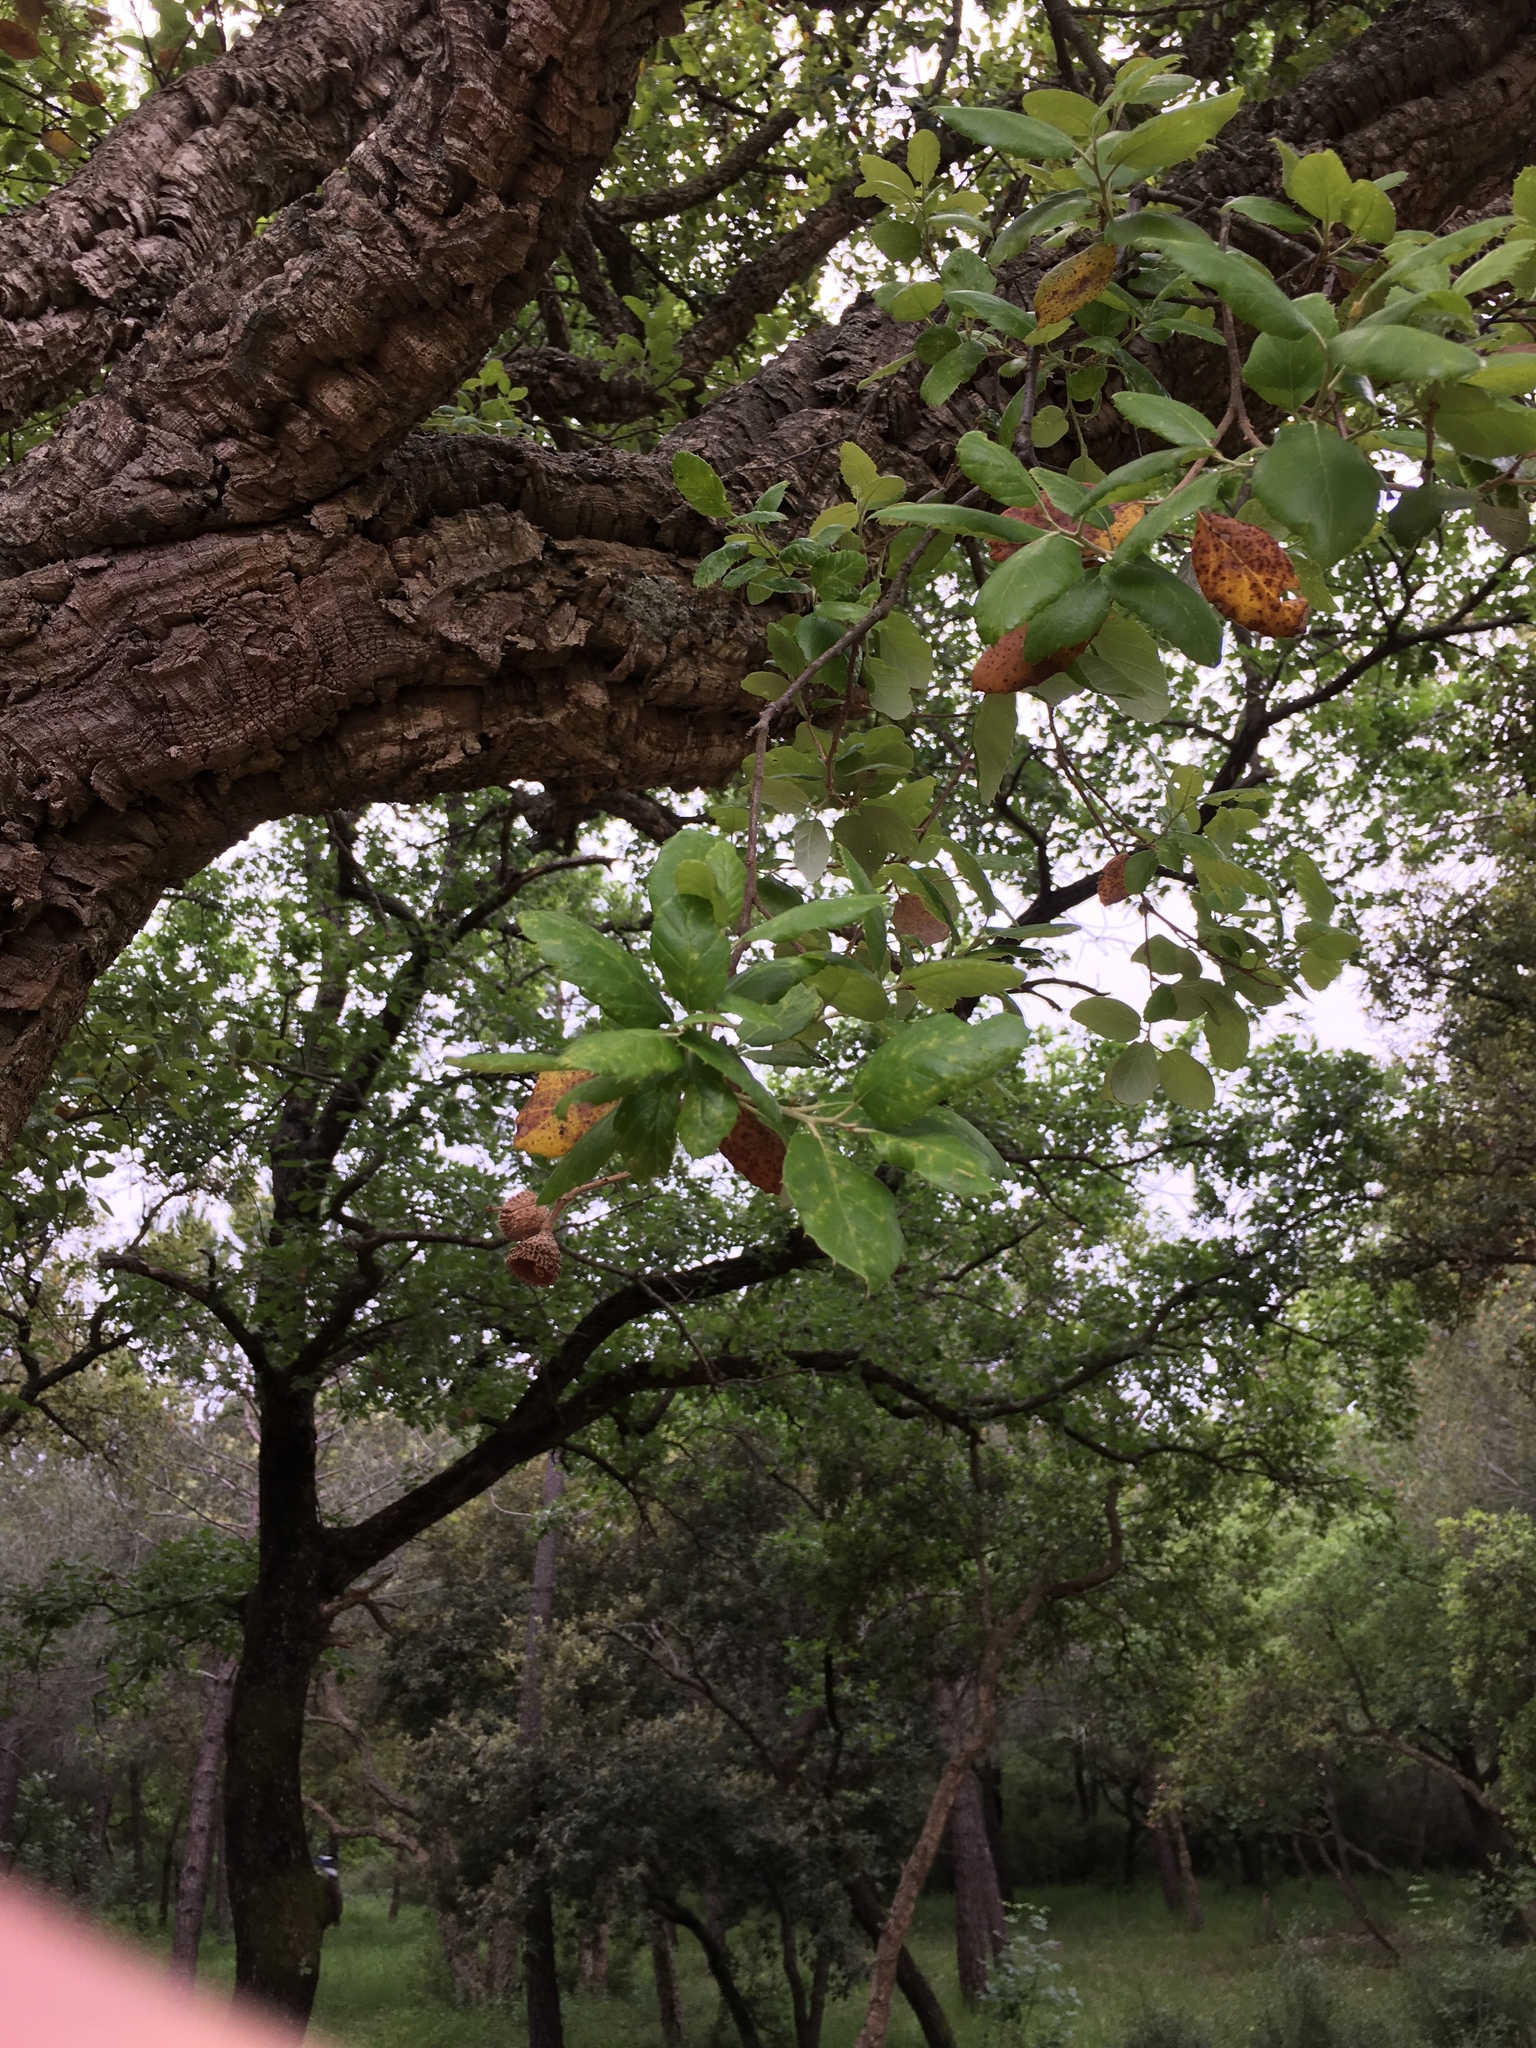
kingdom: Plantae
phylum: Tracheophyta
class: Magnoliopsida
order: Fagales
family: Fagaceae
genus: Quercus
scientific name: Quercus suber
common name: Cork oak
